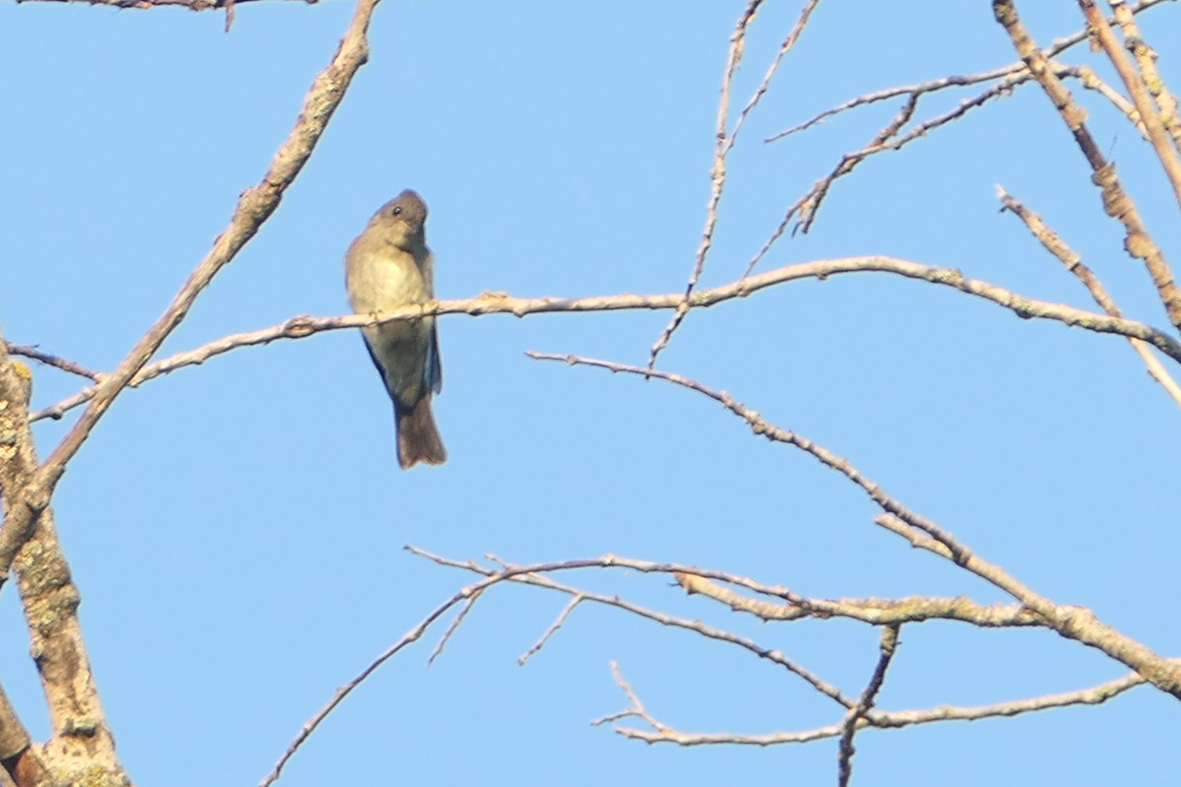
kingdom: Animalia
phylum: Chordata
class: Aves
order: Passeriformes
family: Tyrannidae
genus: Contopus
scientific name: Contopus virens
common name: Eastern wood-pewee
